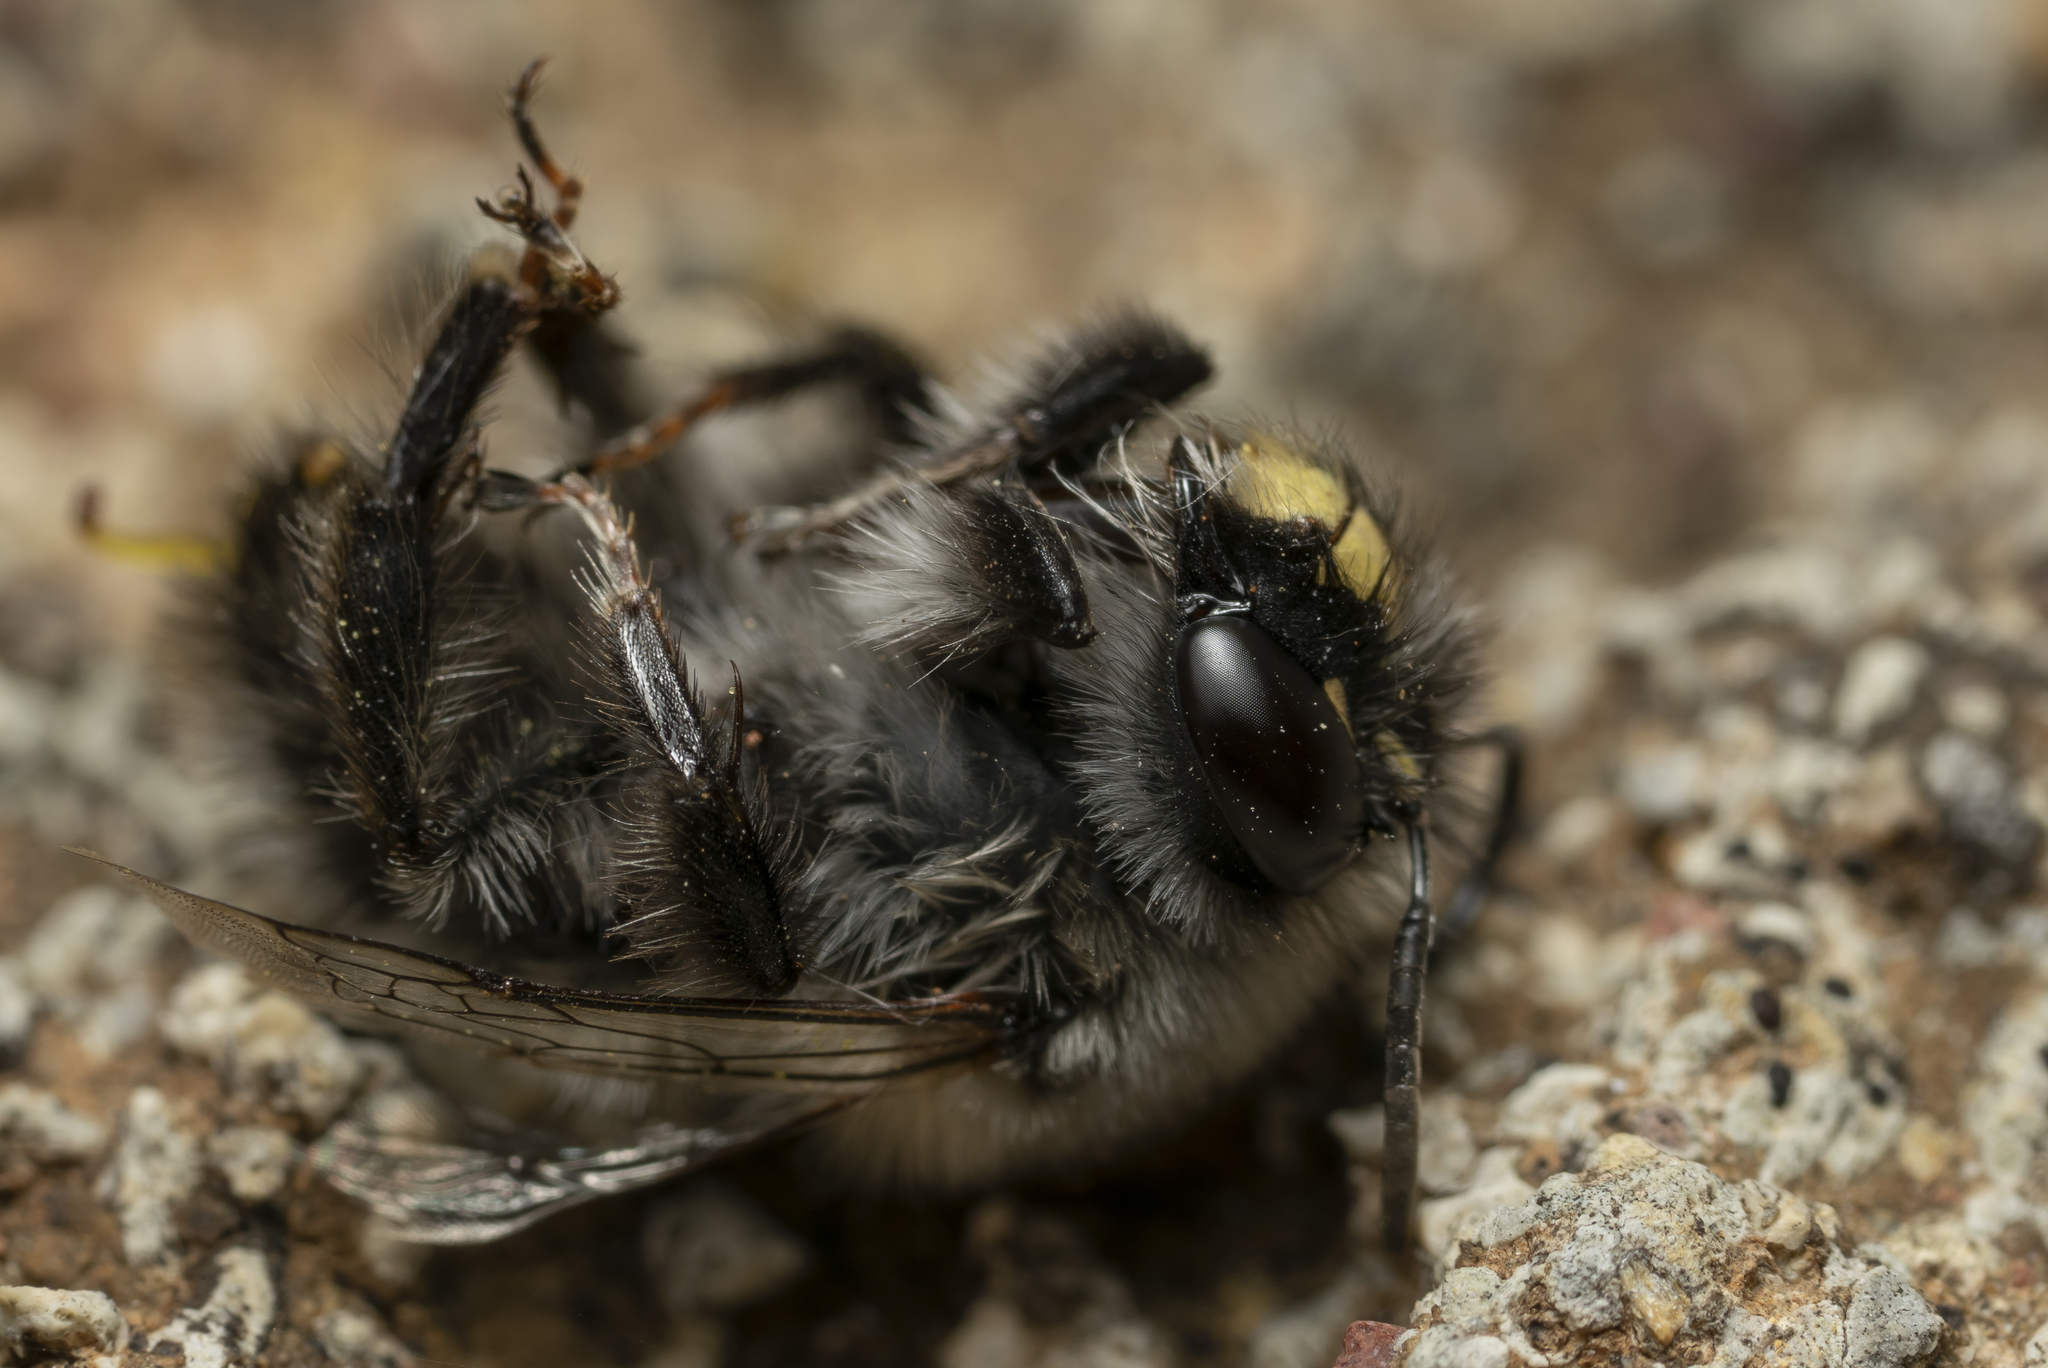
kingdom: Animalia
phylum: Arthropoda
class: Insecta
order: Hymenoptera
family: Apidae
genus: Anthophora
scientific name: Anthophora rubricrus
